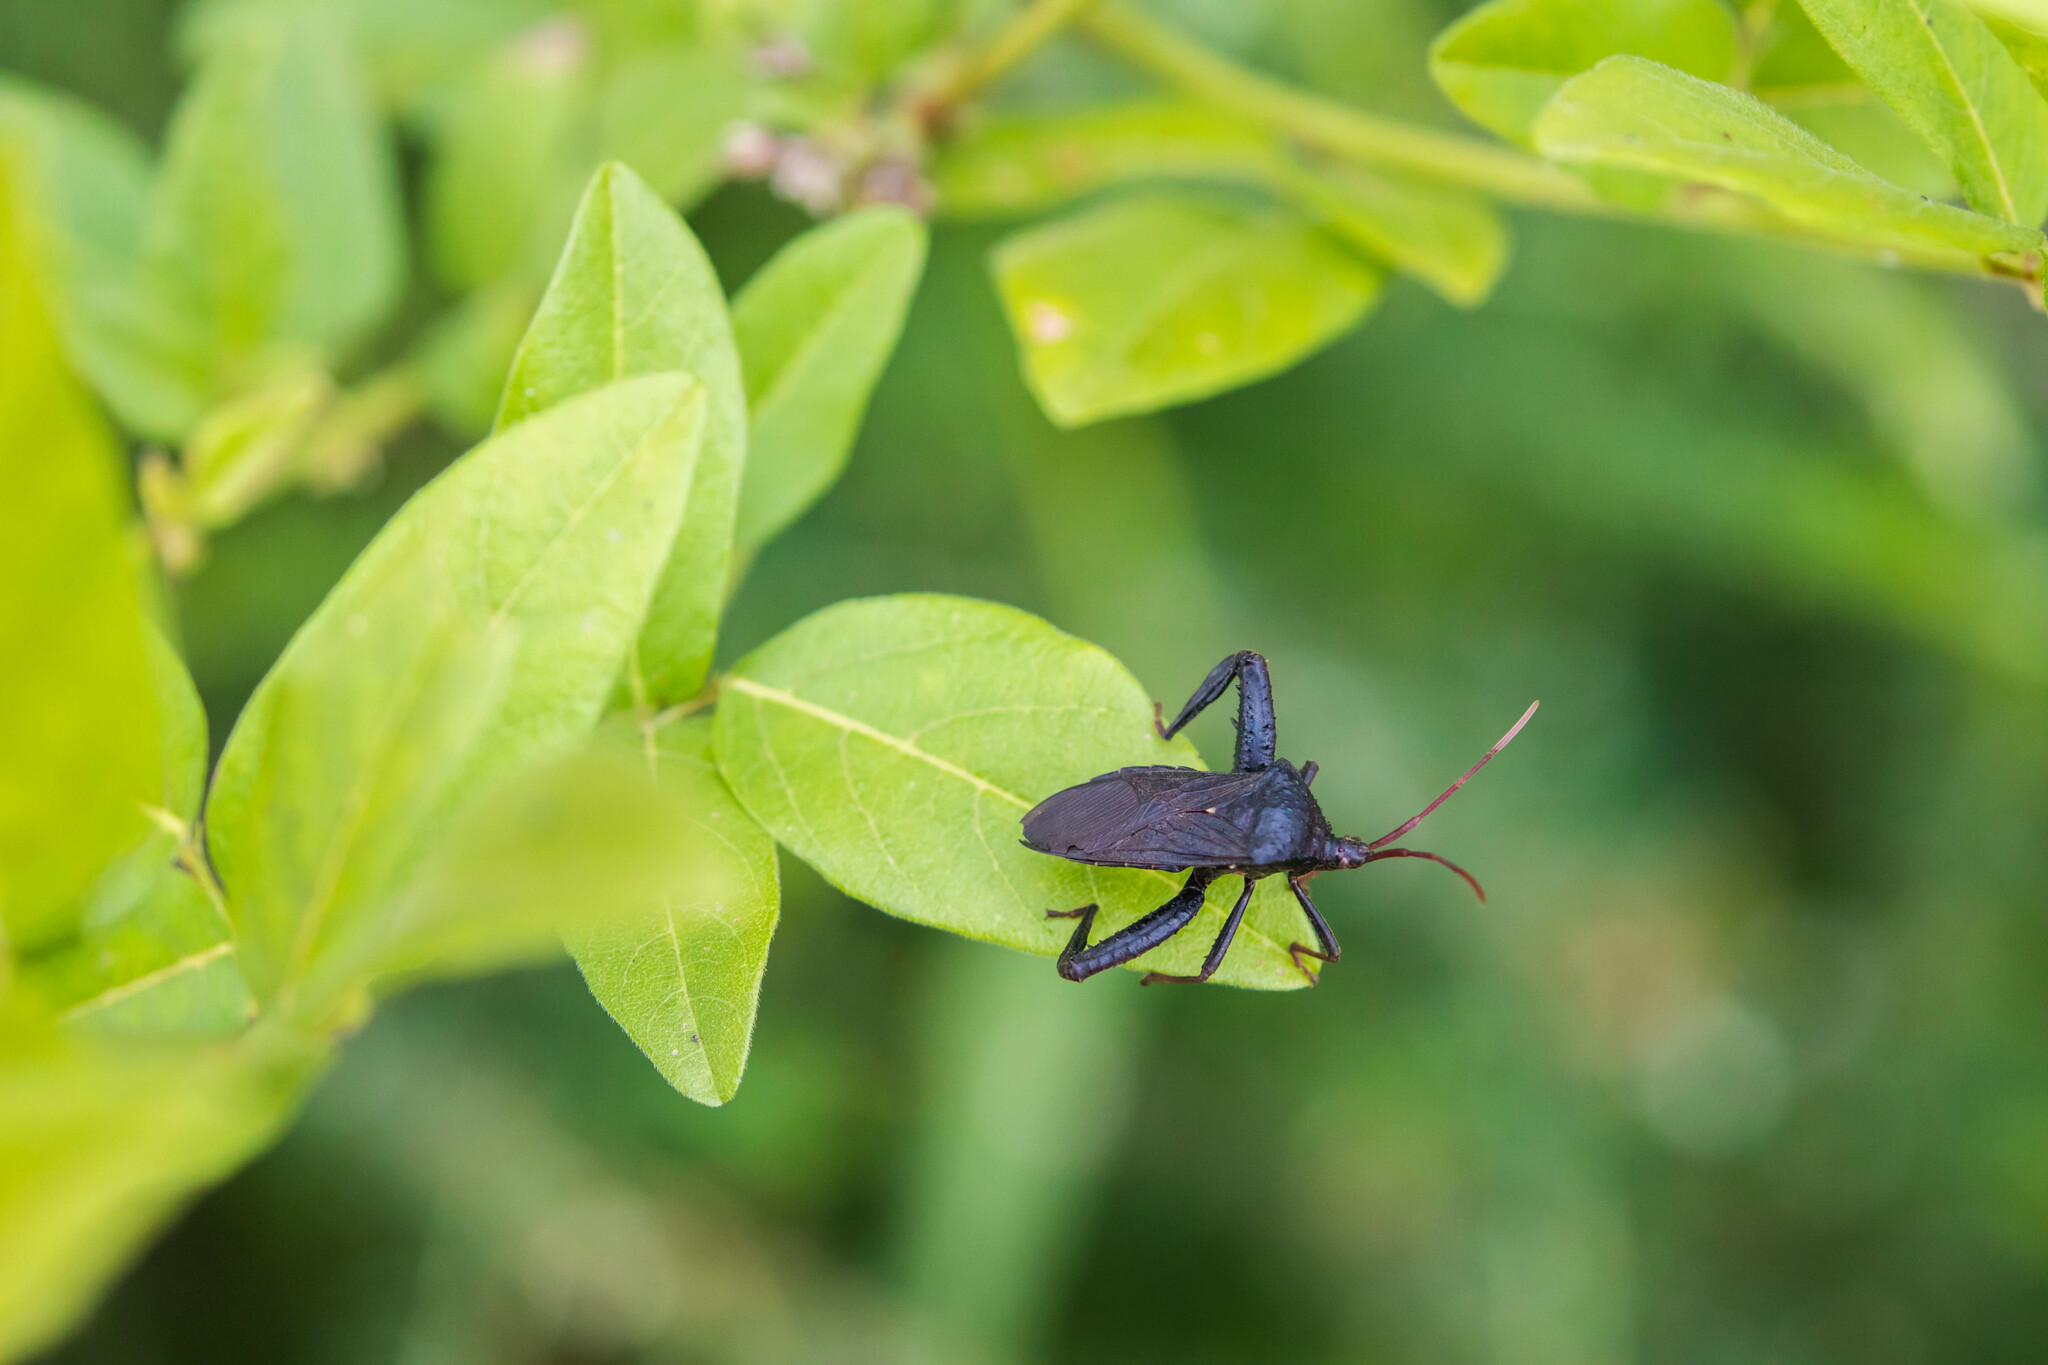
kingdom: Animalia
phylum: Arthropoda
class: Insecta
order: Hemiptera
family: Coreidae
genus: Acanthocephala
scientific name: Acanthocephala femorata
